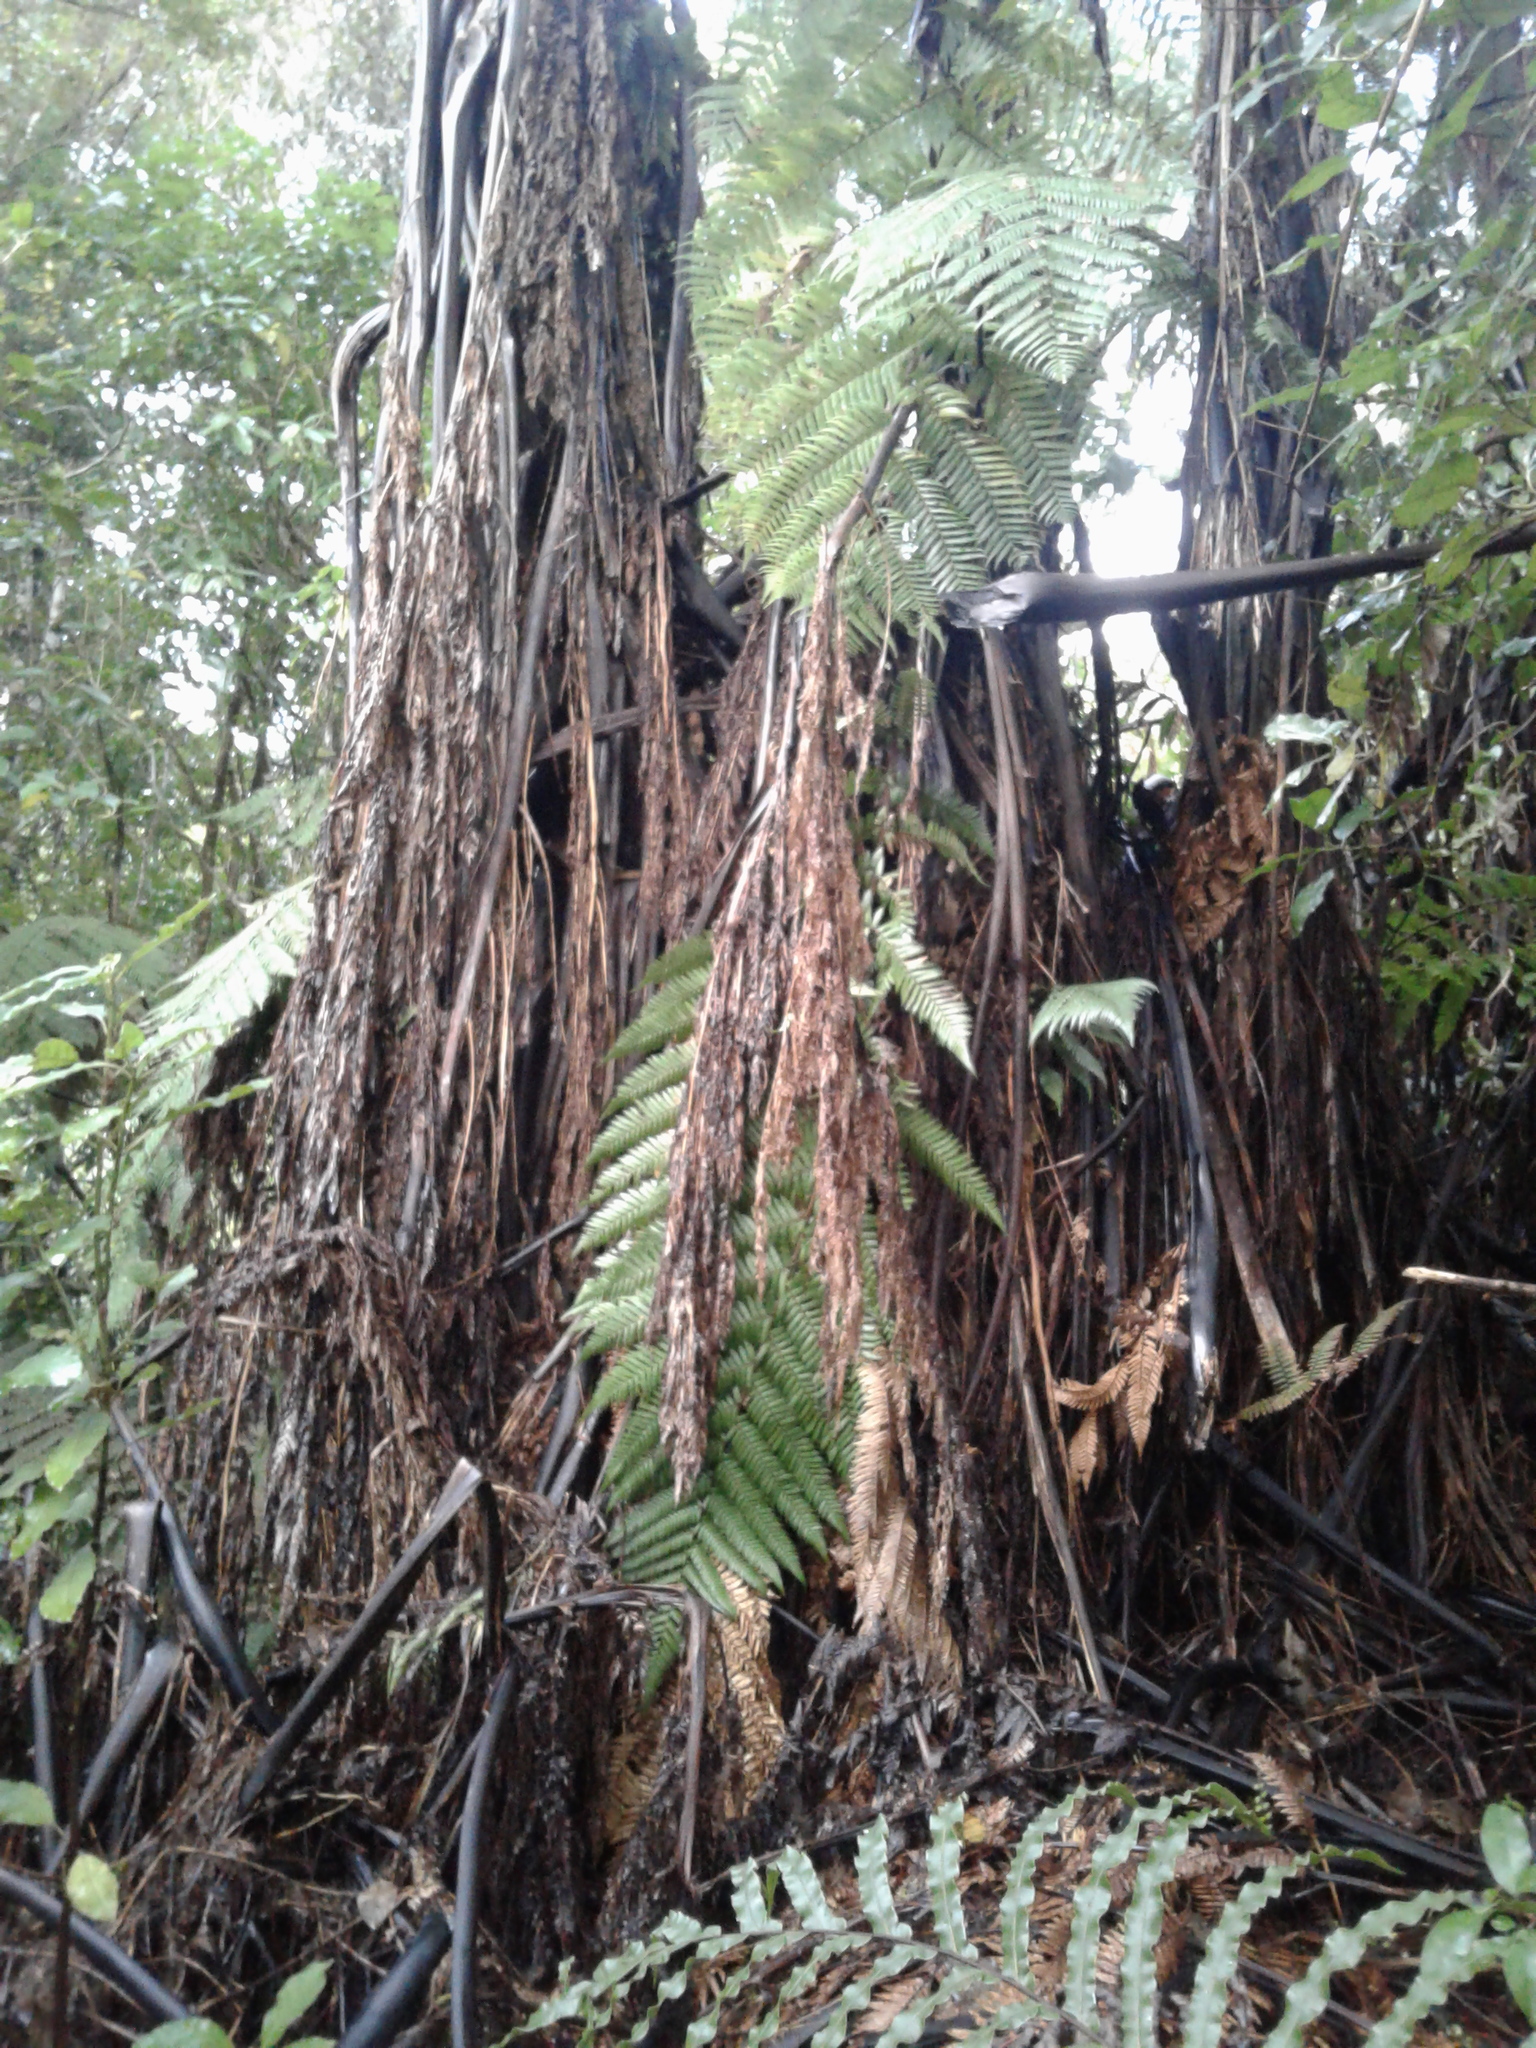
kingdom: Plantae
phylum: Tracheophyta
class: Polypodiopsida
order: Cyatheales
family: Cyatheaceae
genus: Sphaeropteris
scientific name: Sphaeropteris medullaris
